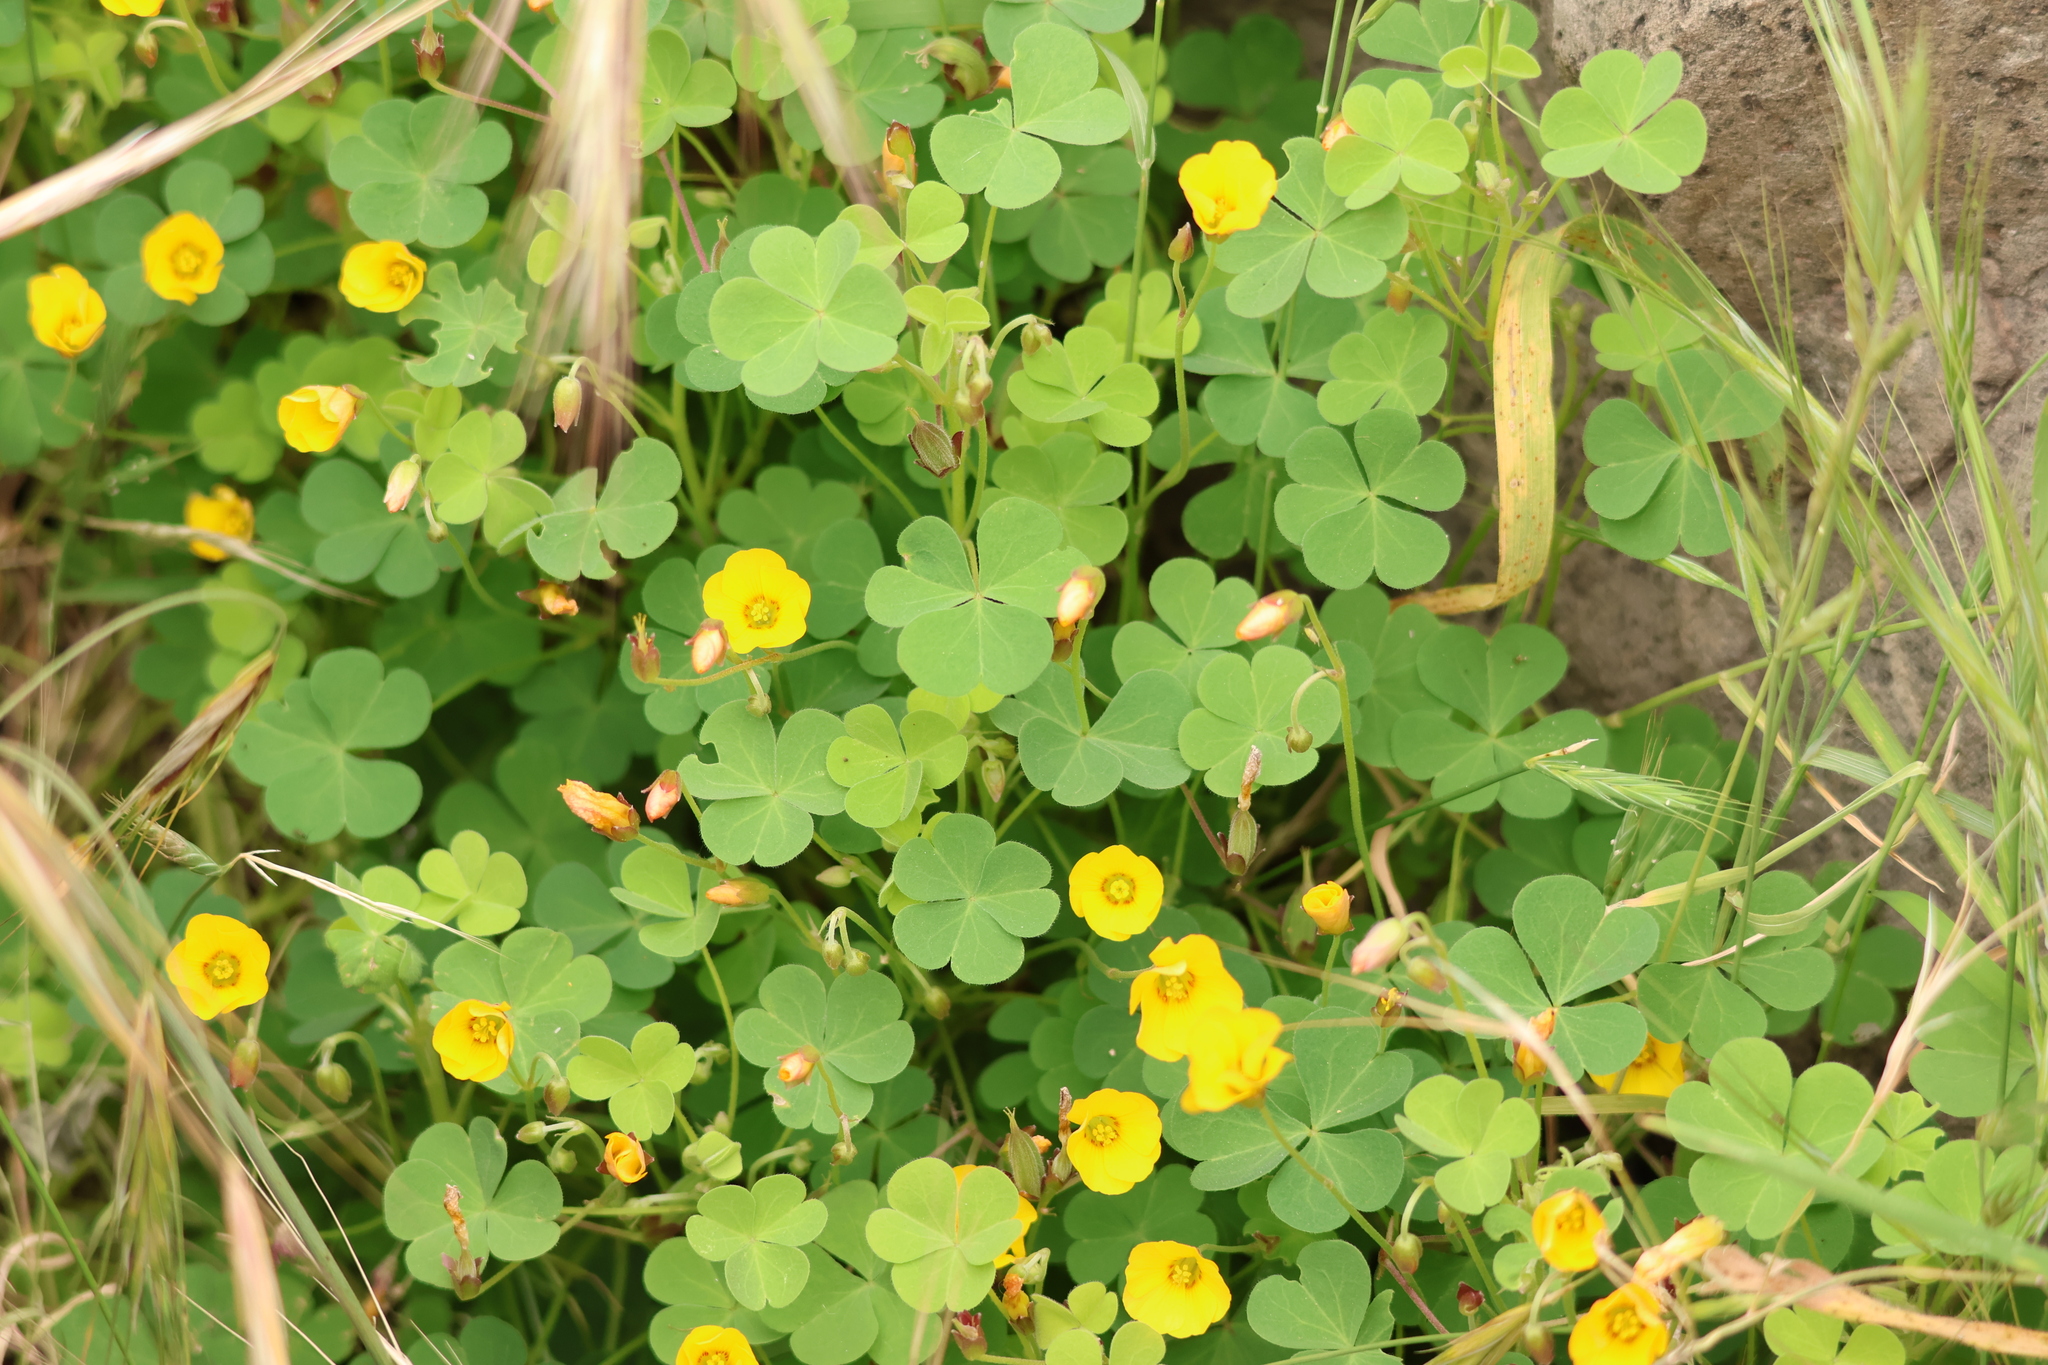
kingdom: Plantae
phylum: Tracheophyta
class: Magnoliopsida
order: Oxalidales
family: Oxalidaceae
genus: Oxalis
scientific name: Oxalis californica
